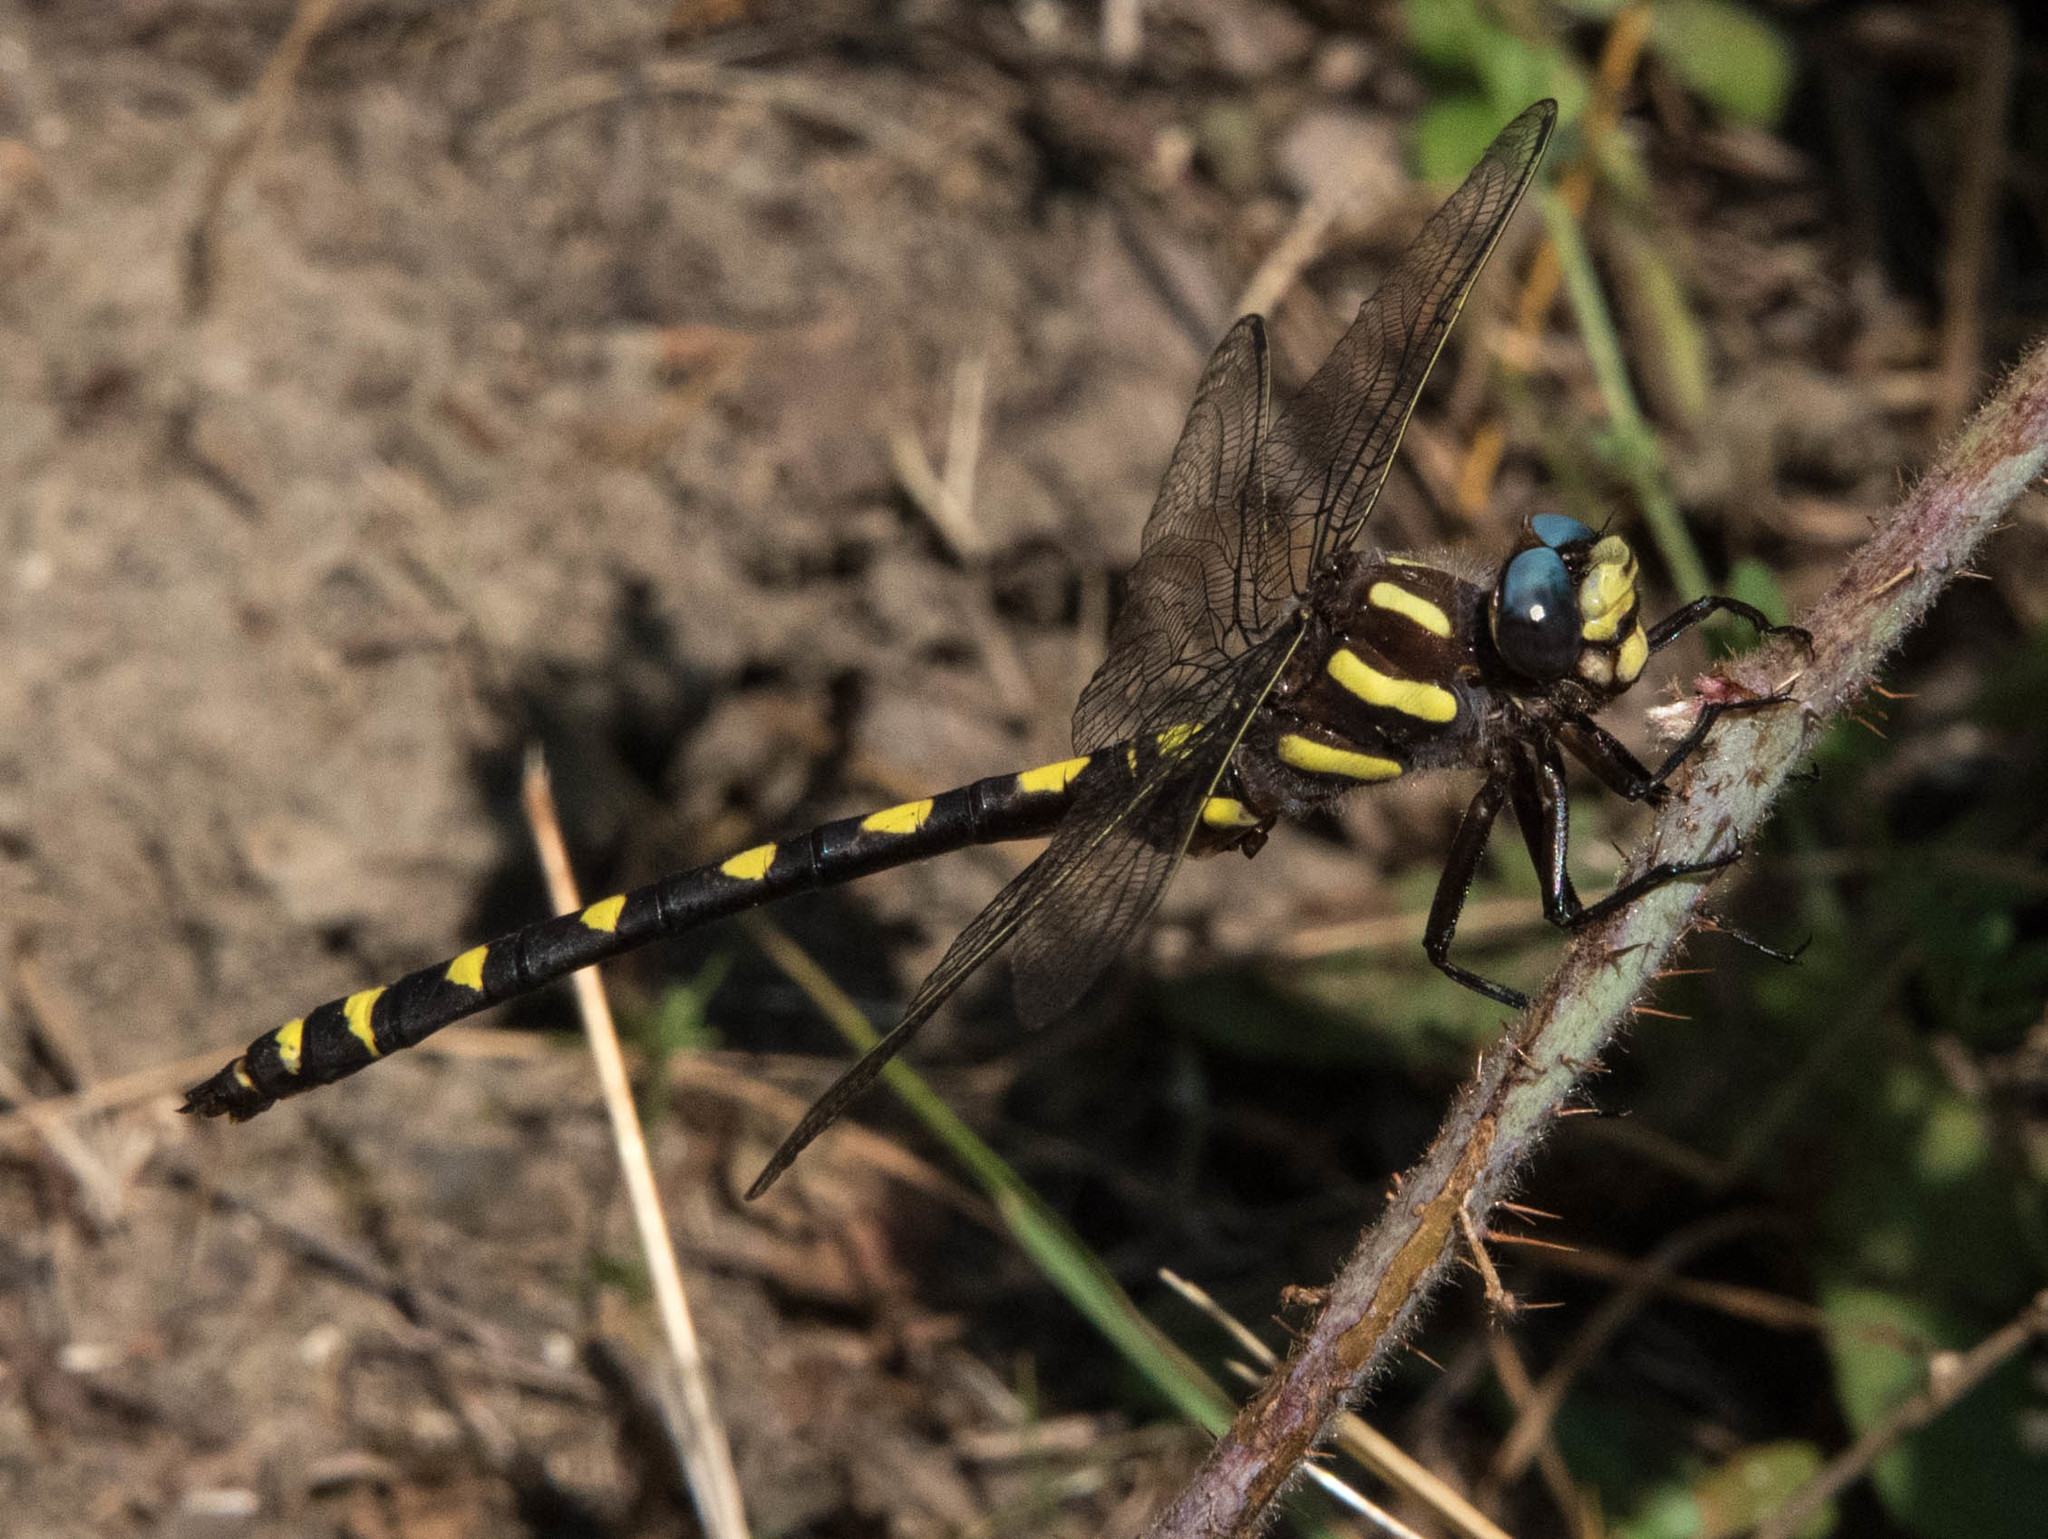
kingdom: Animalia
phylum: Arthropoda
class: Insecta
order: Odonata
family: Cordulegastridae
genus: Cordulegaster
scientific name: Cordulegaster dorsalis
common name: Pacific spiketail
